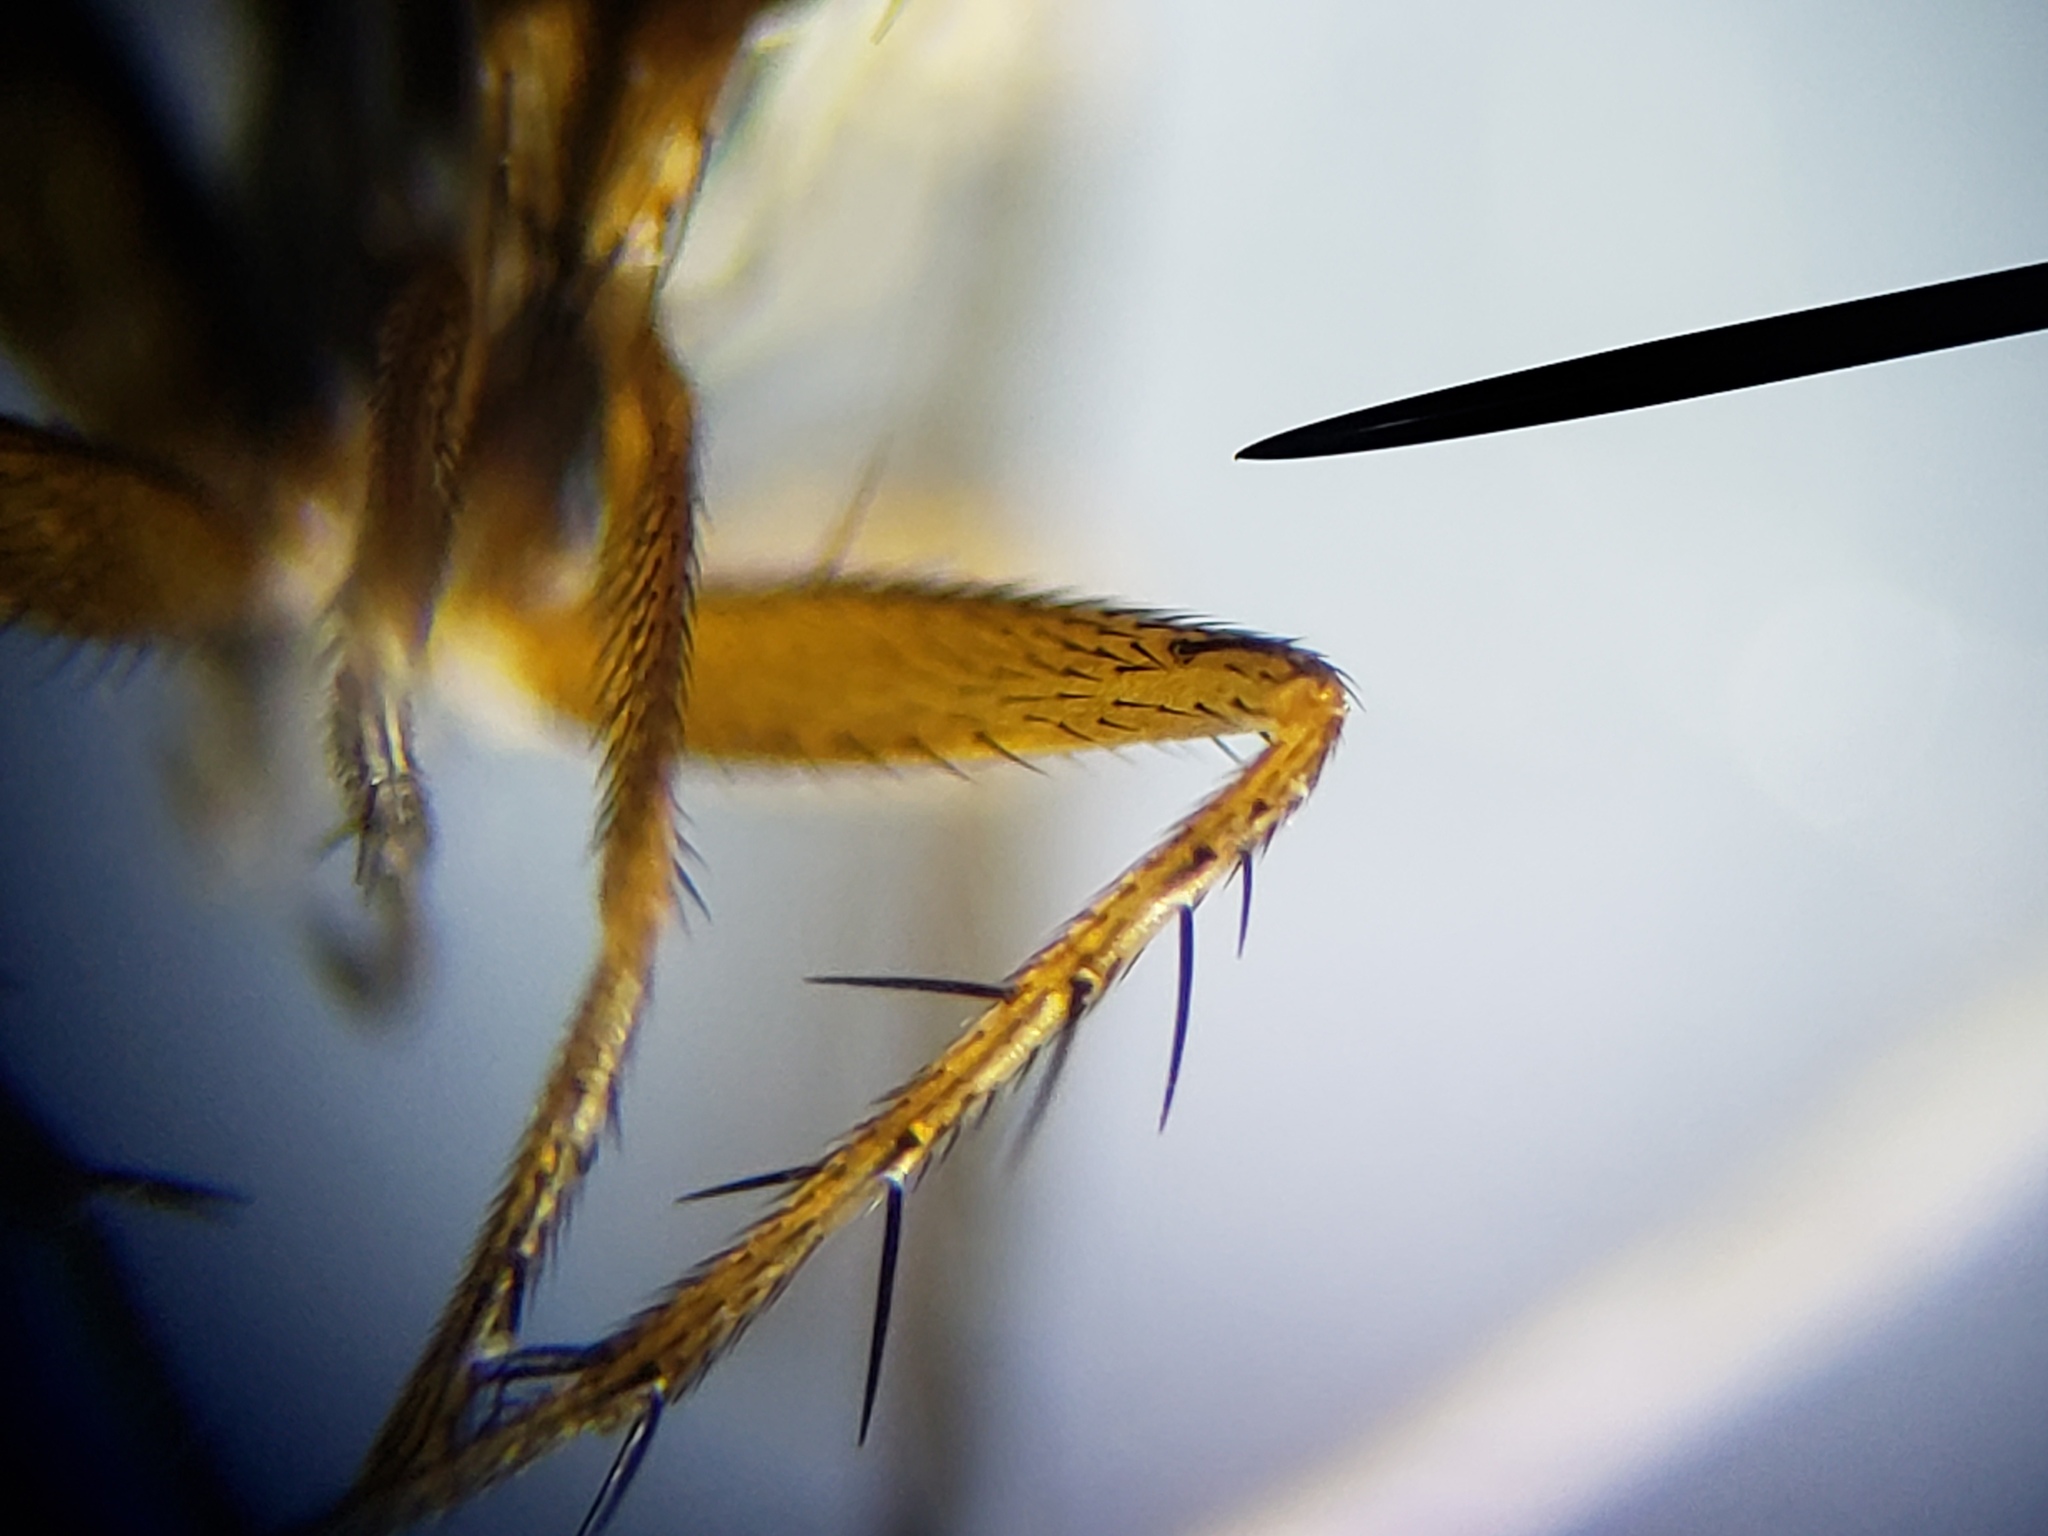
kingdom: Animalia
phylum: Arthropoda
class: Insecta
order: Diptera
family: Dolichopodidae
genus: Paraclius
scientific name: Paraclius propinquus
